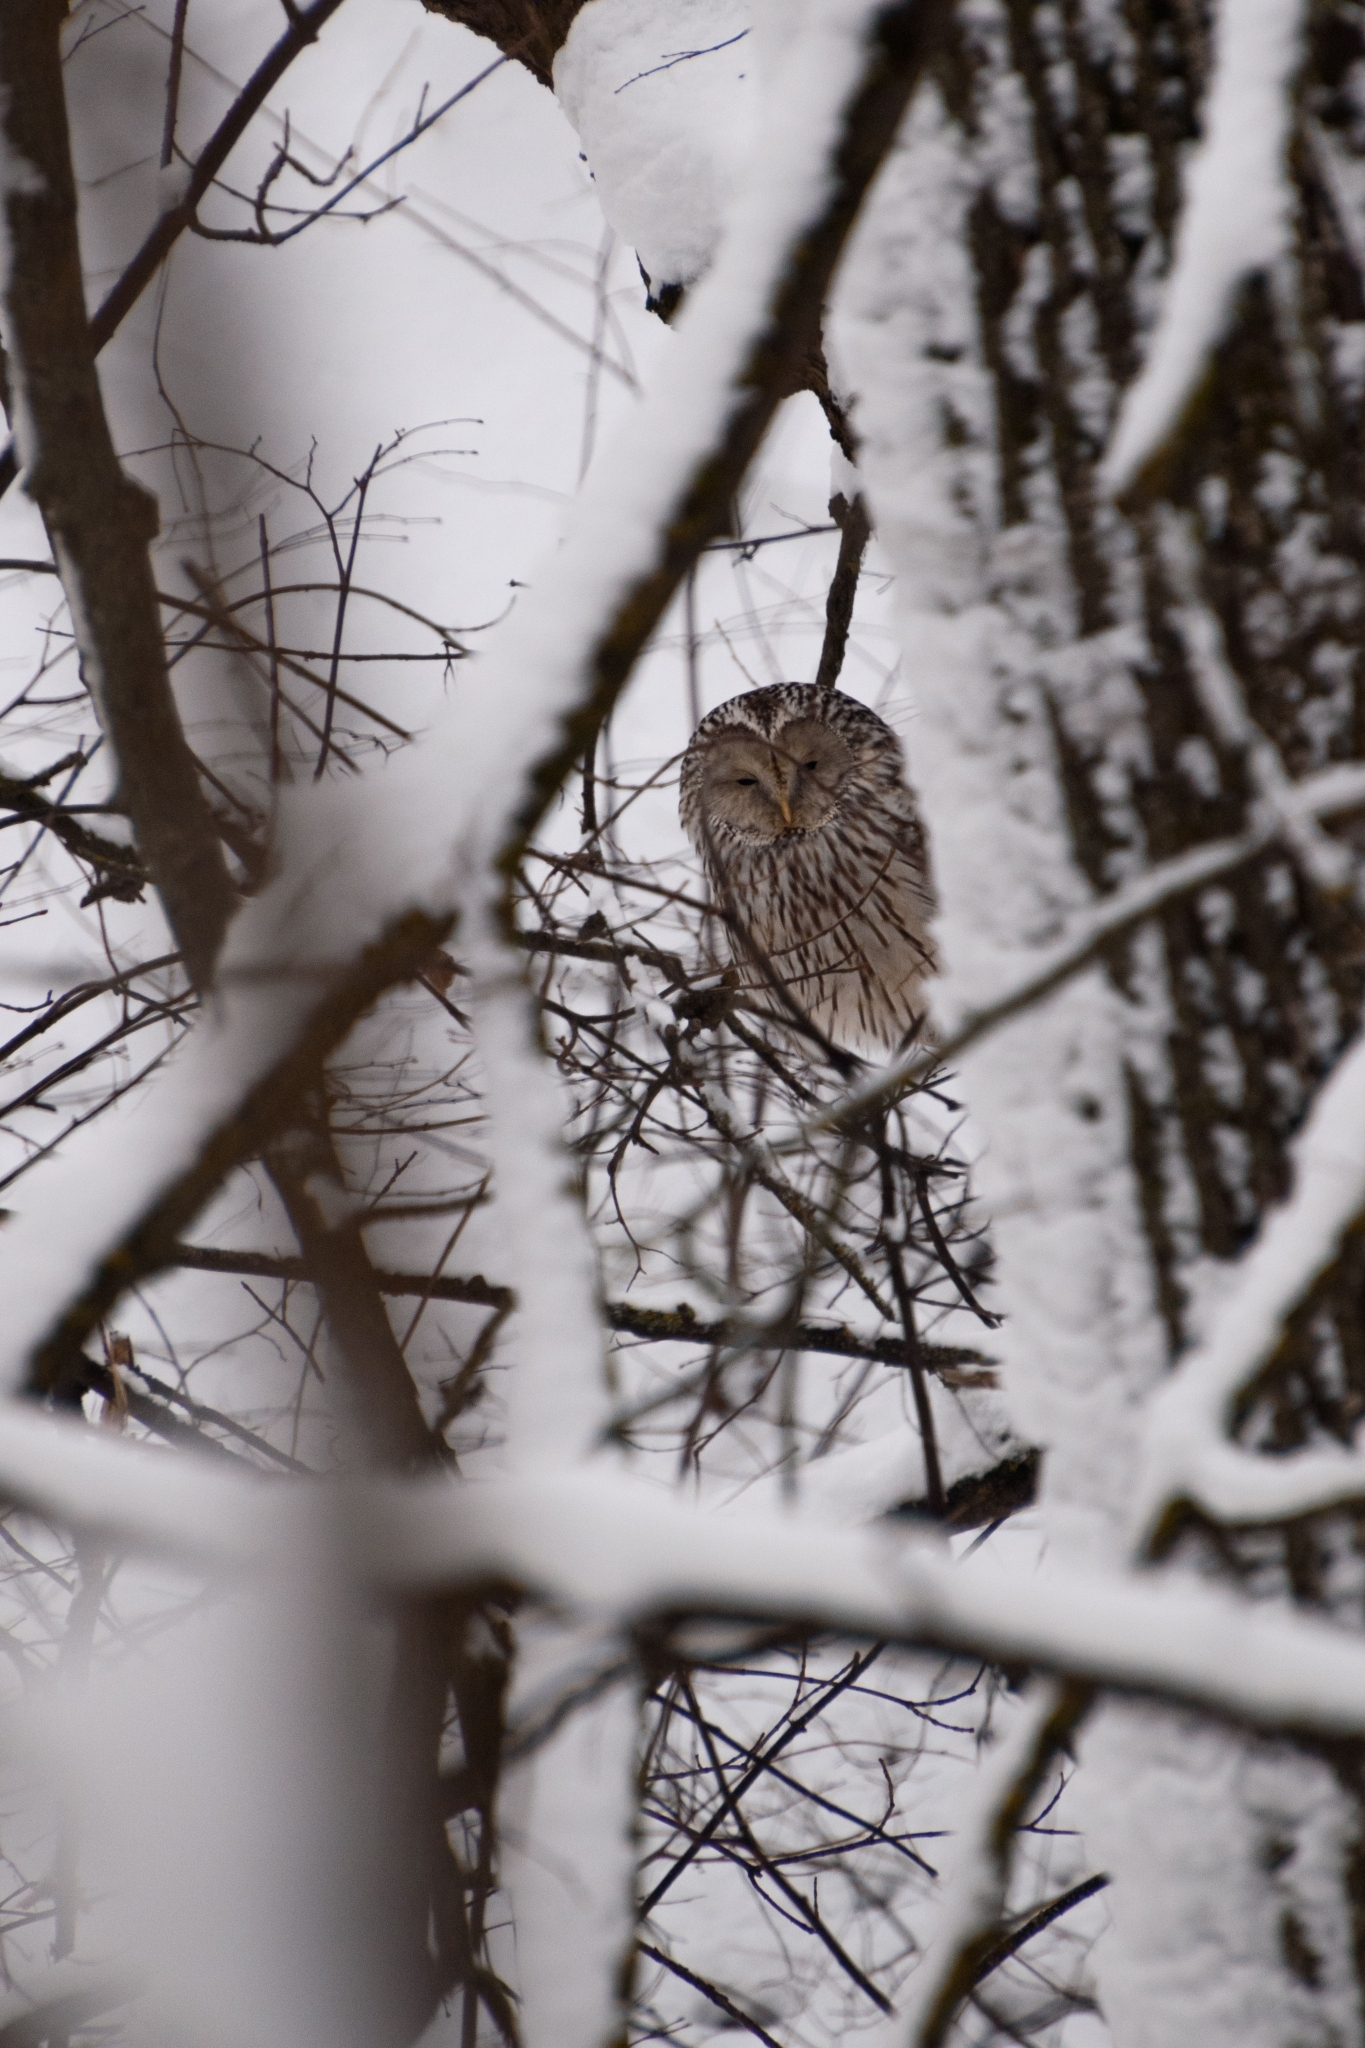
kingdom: Animalia
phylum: Chordata
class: Aves
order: Strigiformes
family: Strigidae
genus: Strix
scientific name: Strix uralensis
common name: Ural owl
